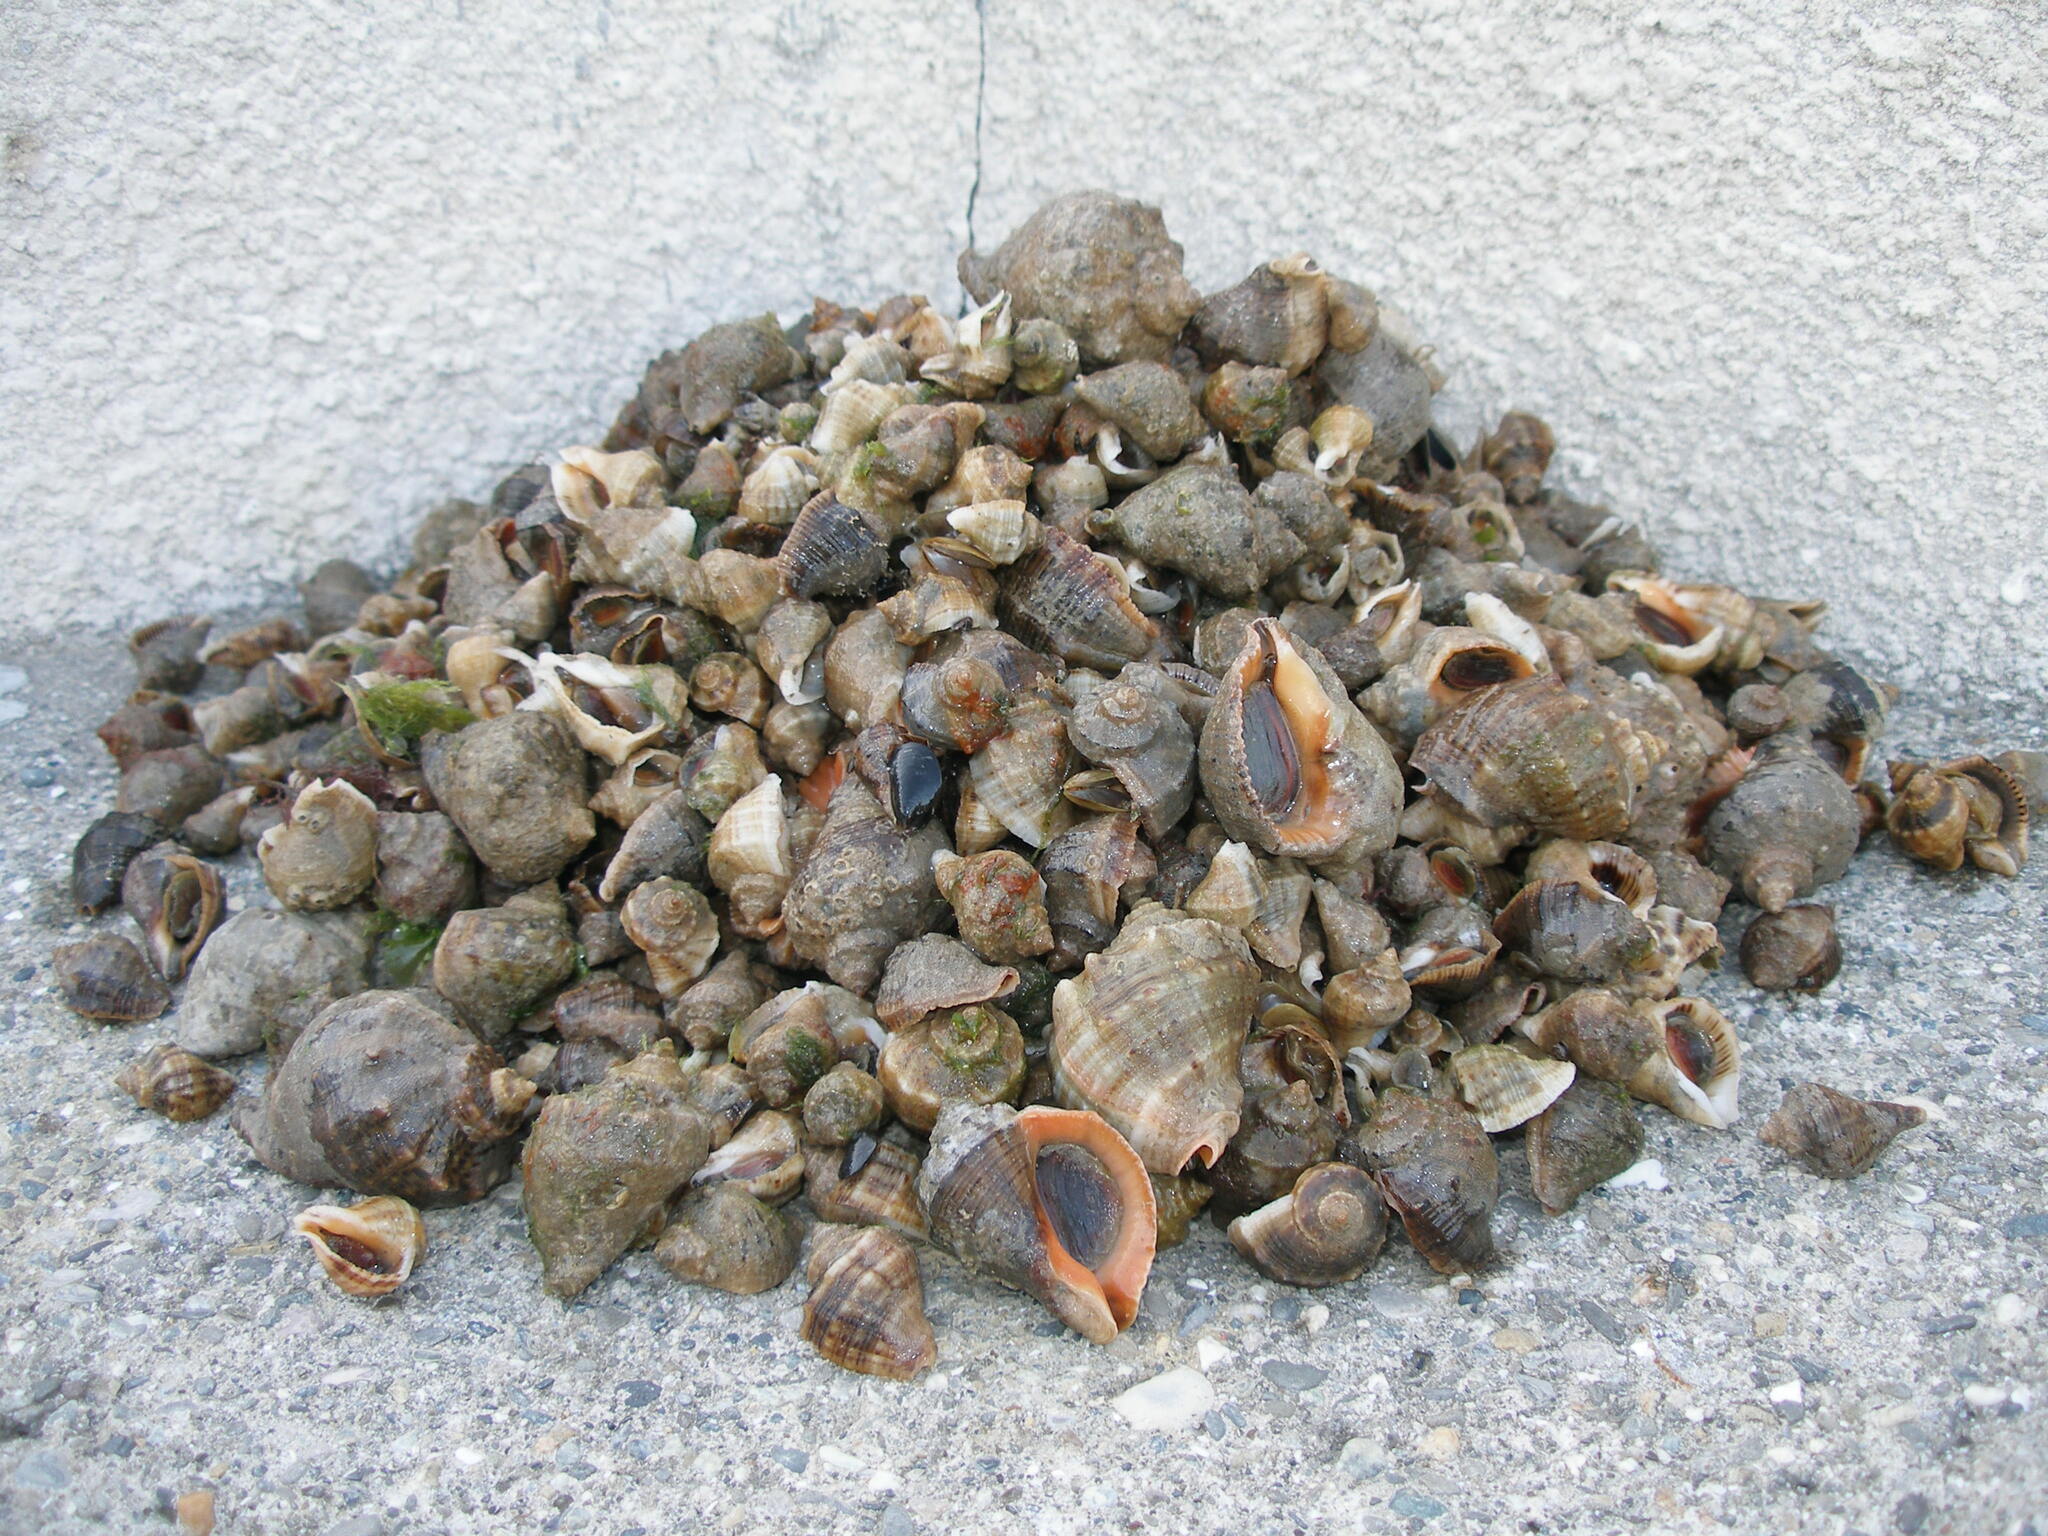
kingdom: Animalia
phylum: Mollusca
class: Gastropoda
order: Neogastropoda
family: Muricidae
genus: Rapana
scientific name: Rapana venosa
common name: Veined rapa whelk
